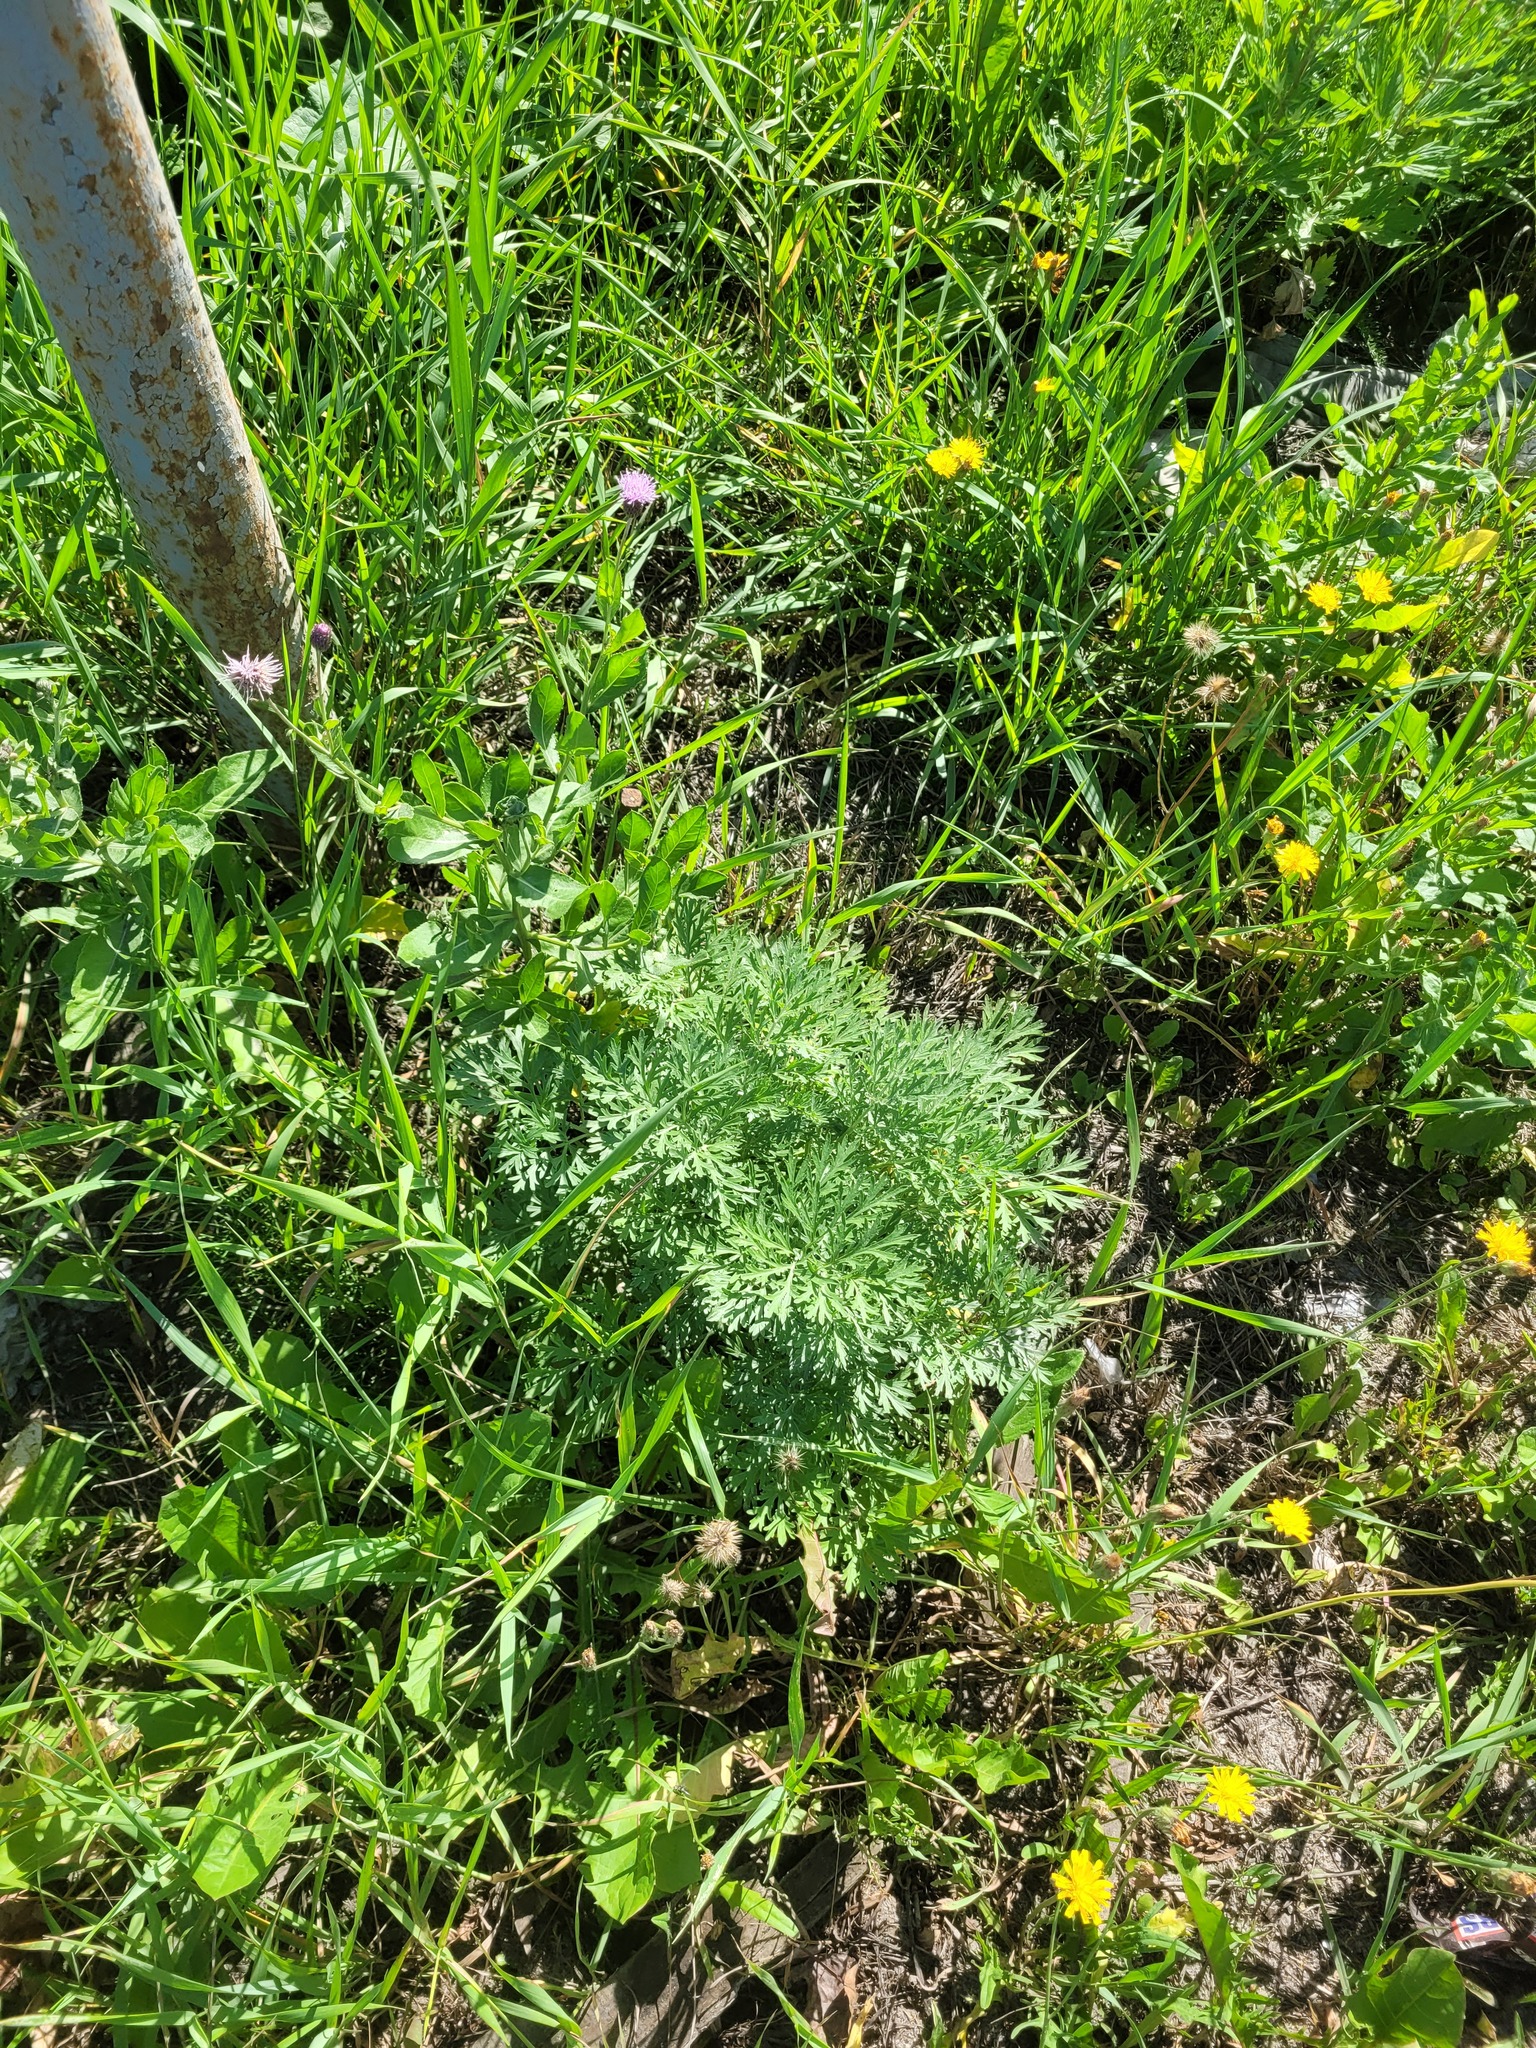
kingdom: Plantae
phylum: Tracheophyta
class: Magnoliopsida
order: Asterales
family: Asteraceae
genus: Artemisia
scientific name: Artemisia absinthium
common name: Wormwood
